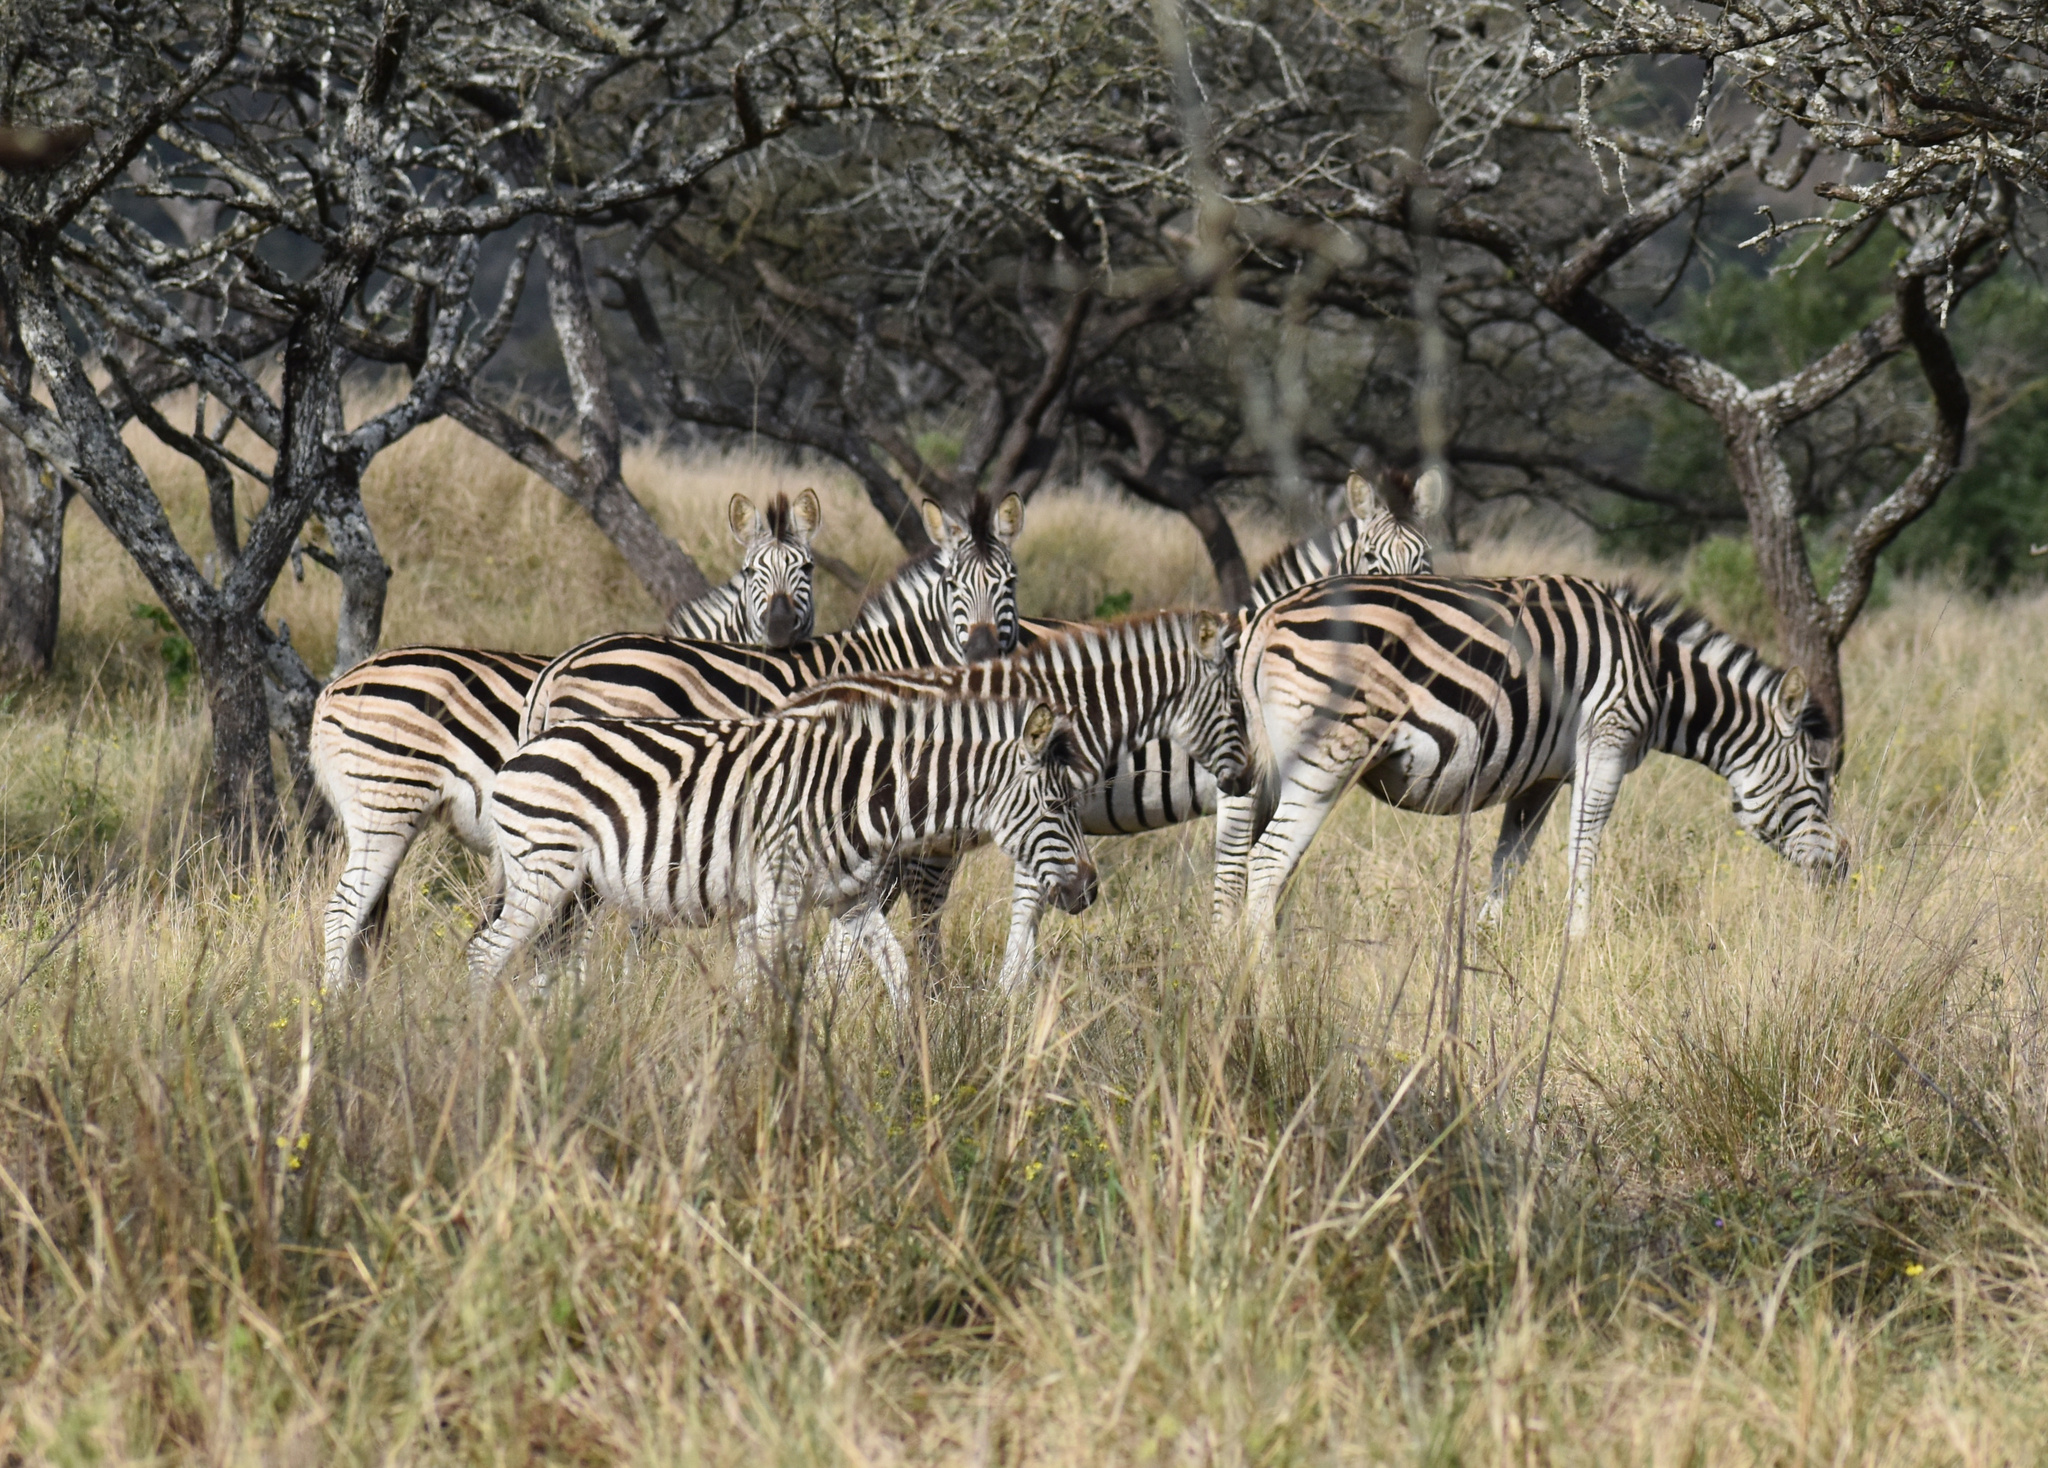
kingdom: Animalia
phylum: Chordata
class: Mammalia
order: Perissodactyla
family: Equidae
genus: Equus
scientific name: Equus quagga
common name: Plains zebra
